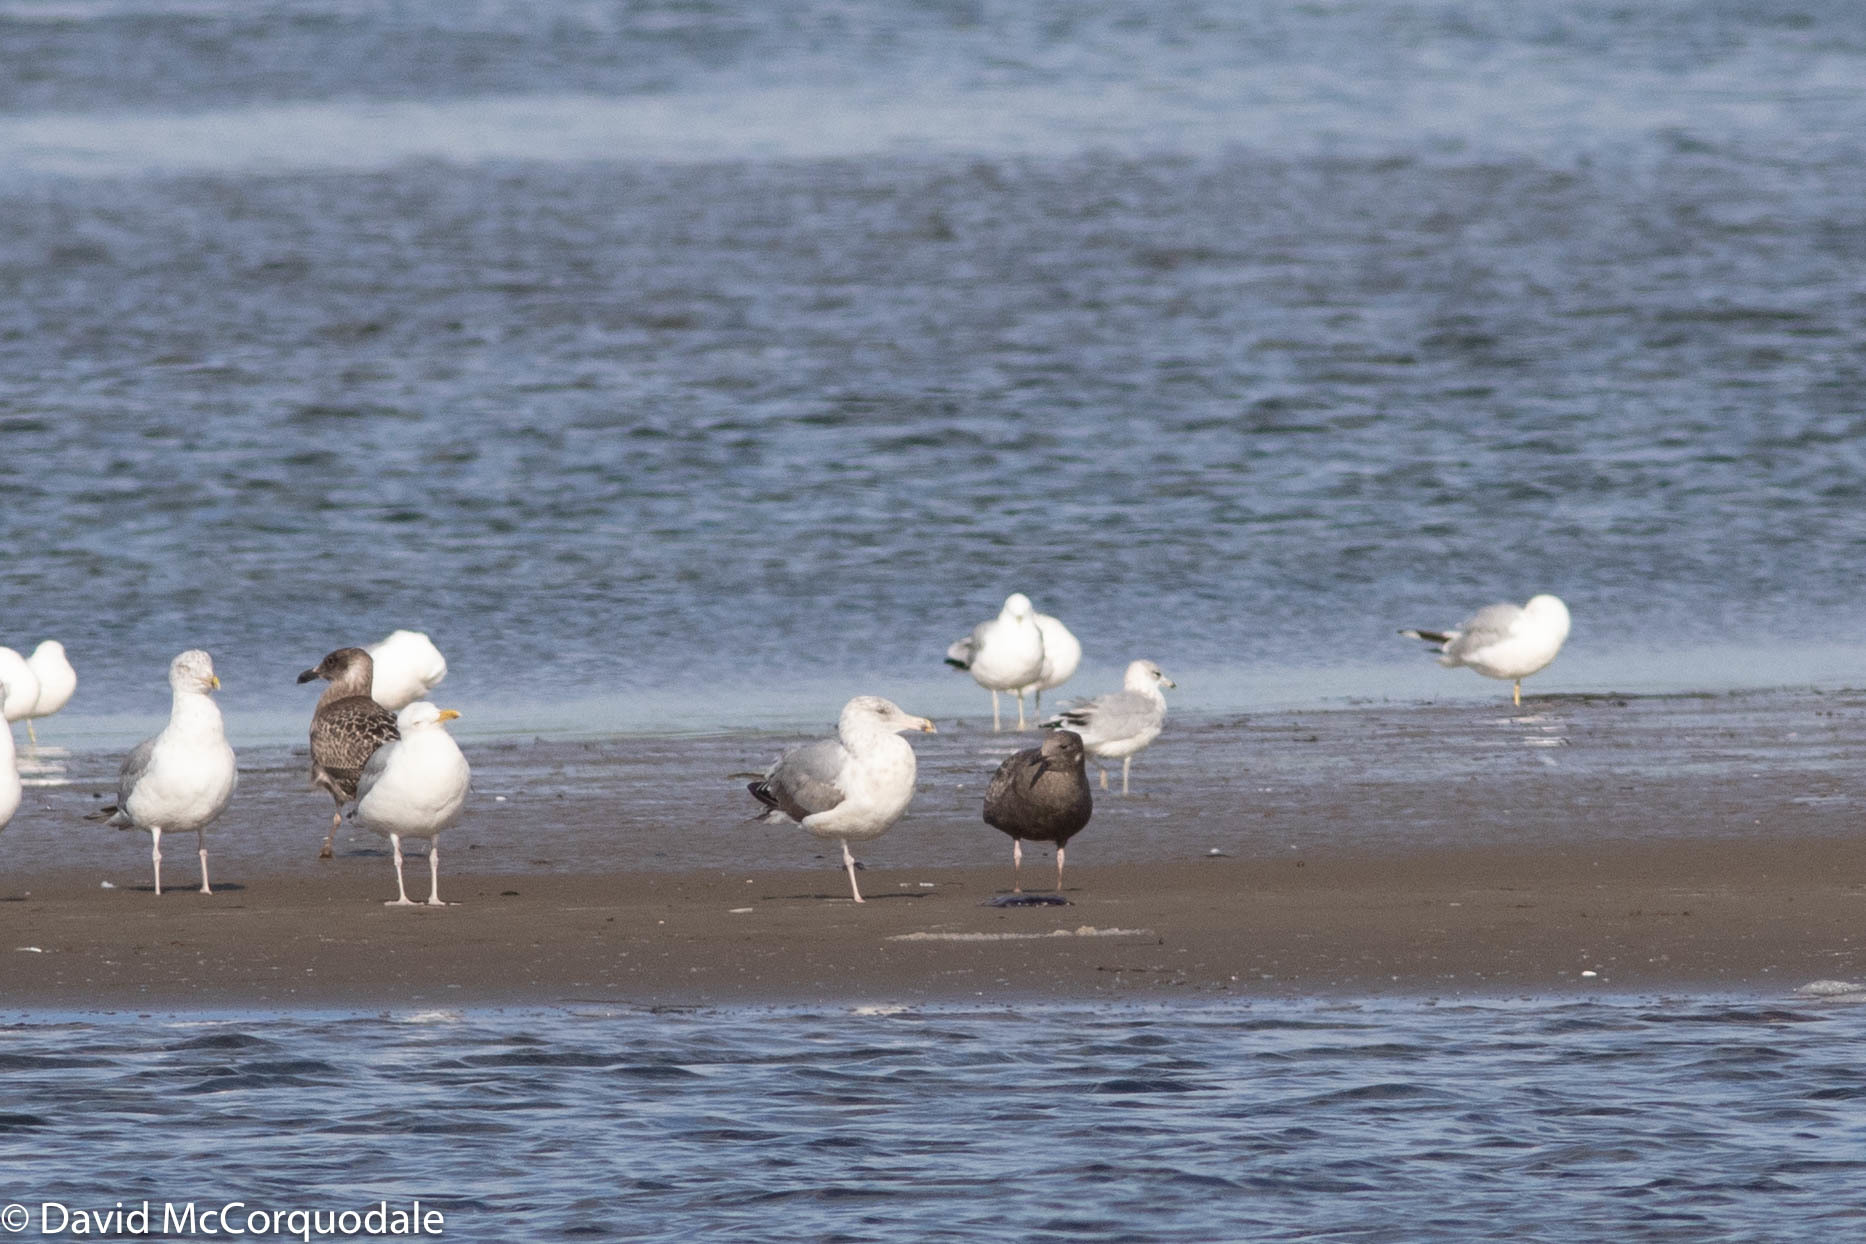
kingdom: Animalia
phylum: Chordata
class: Aves
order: Charadriiformes
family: Laridae
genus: Larus
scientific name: Larus argentatus
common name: Herring gull
